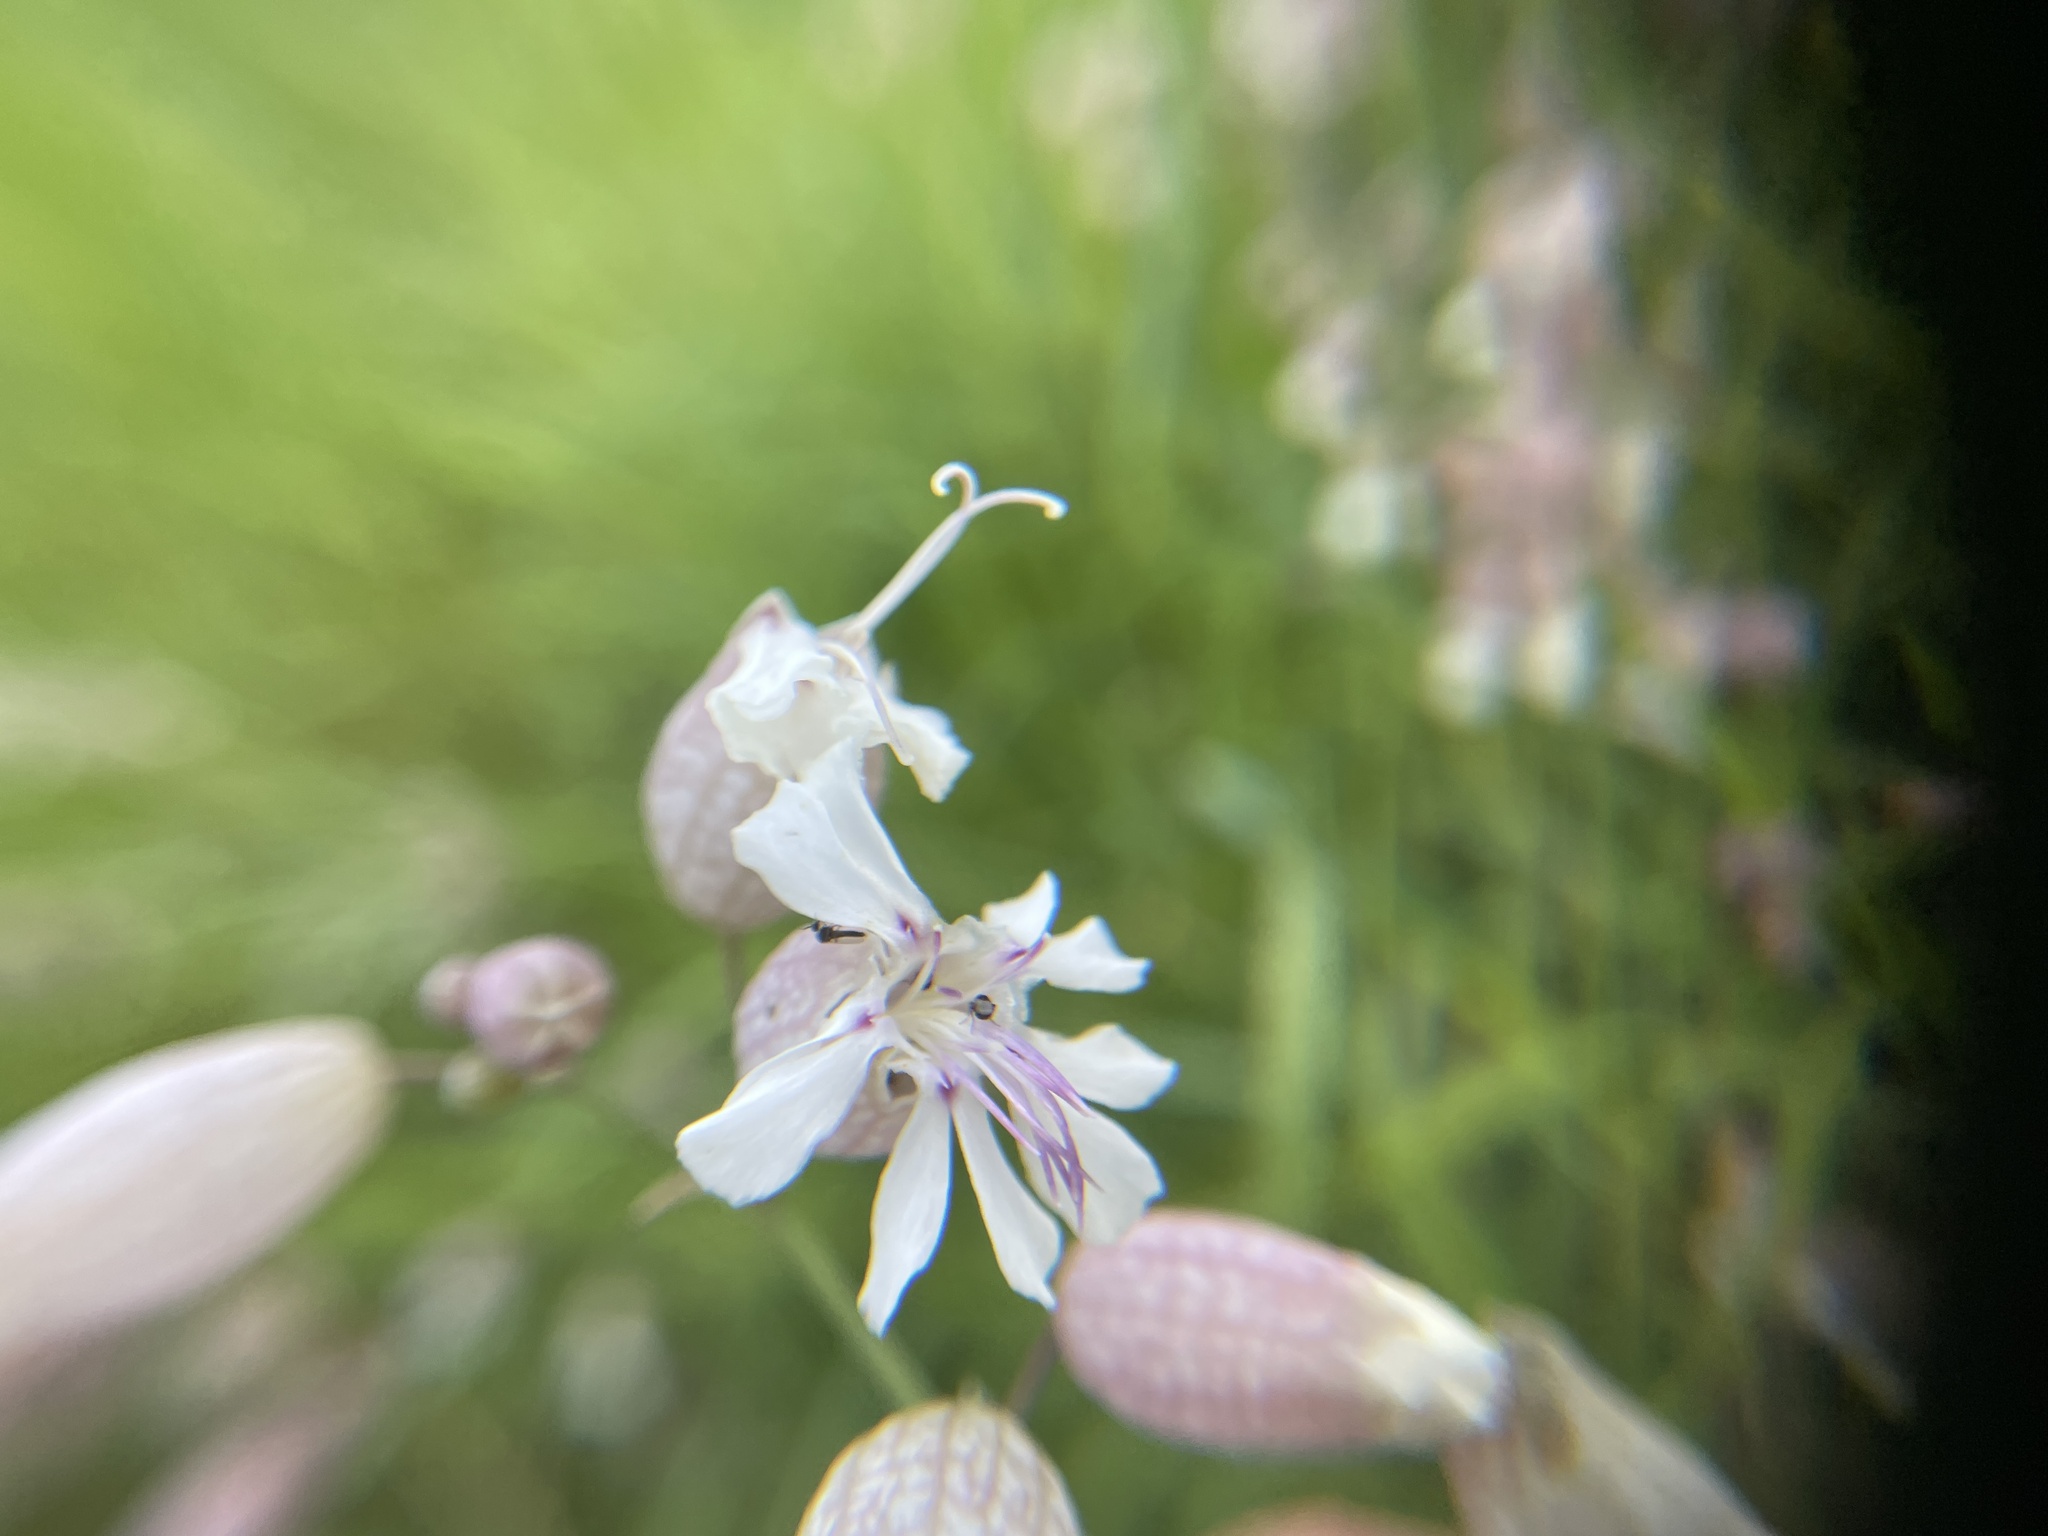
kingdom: Plantae
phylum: Tracheophyta
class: Magnoliopsida
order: Caryophyllales
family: Caryophyllaceae
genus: Silene
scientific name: Silene vulgaris
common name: Bladder campion
